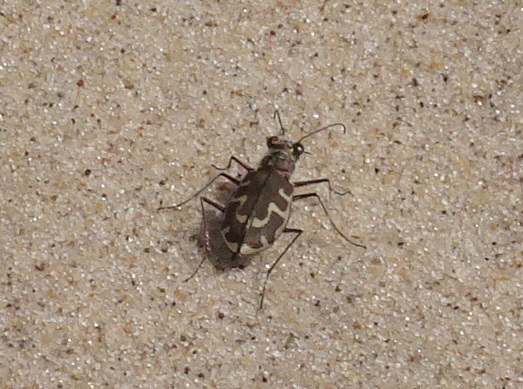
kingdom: Animalia
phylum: Arthropoda
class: Insecta
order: Coleoptera
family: Carabidae
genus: Cicindela
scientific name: Cicindela hirticollis
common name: Hairy-necked tiger beetle
